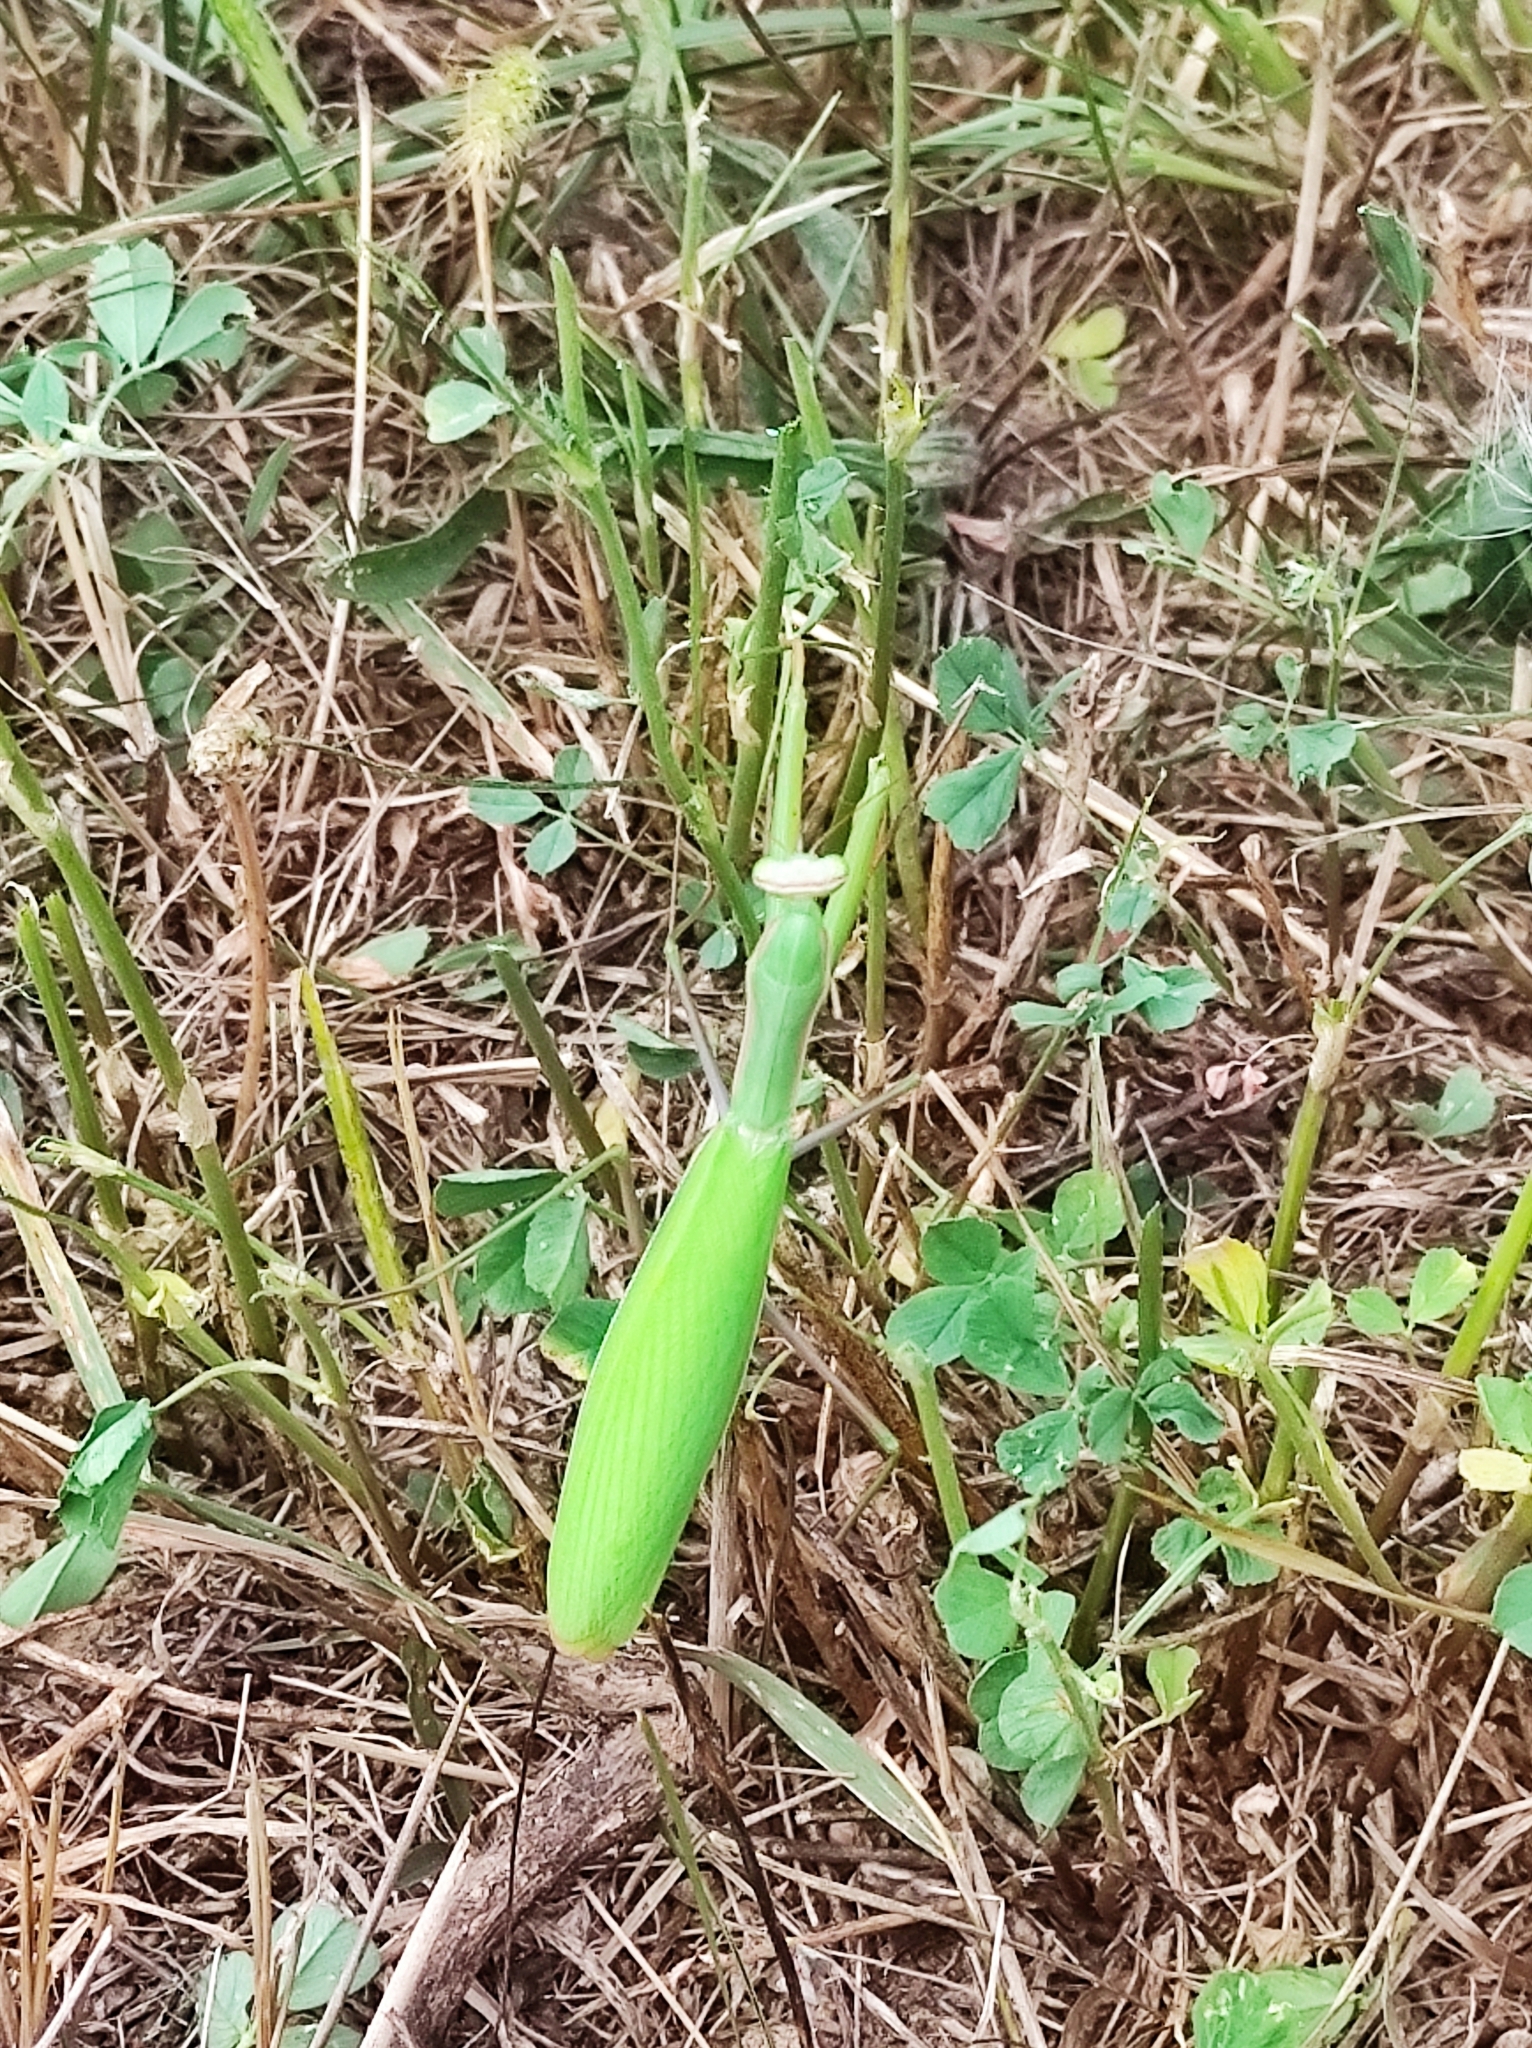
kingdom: Animalia
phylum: Arthropoda
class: Insecta
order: Mantodea
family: Mantidae
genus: Mantis
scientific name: Mantis religiosa
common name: Praying mantis
